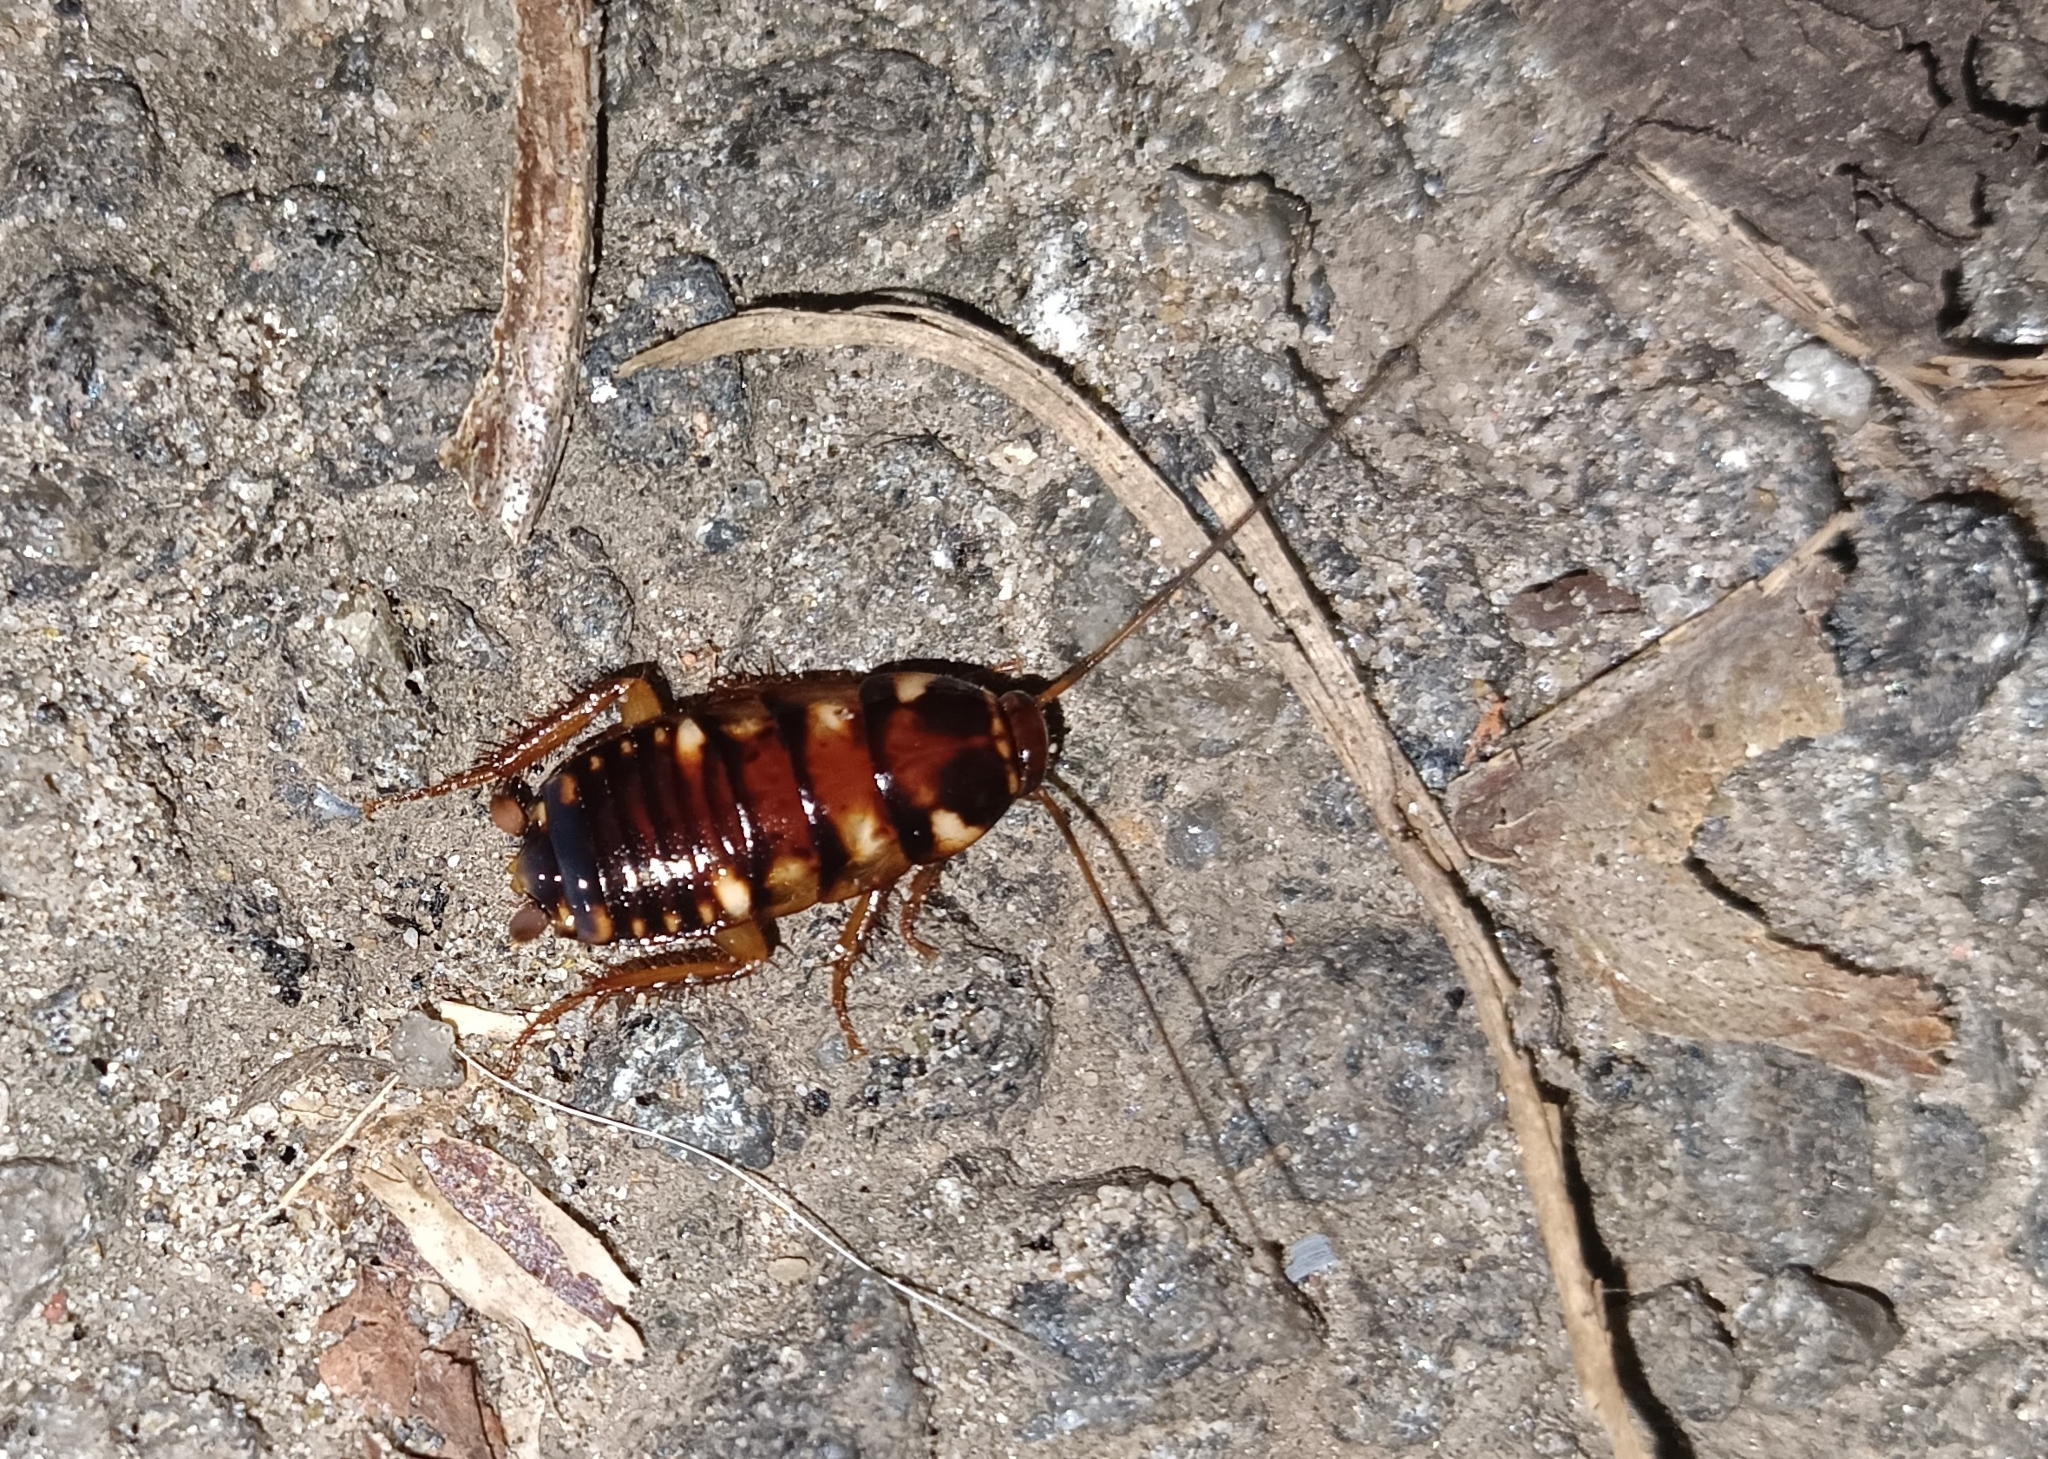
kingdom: Animalia
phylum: Arthropoda
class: Insecta
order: Blattodea
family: Blattidae
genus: Periplaneta
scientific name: Periplaneta australasiae
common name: Australian cockroach
